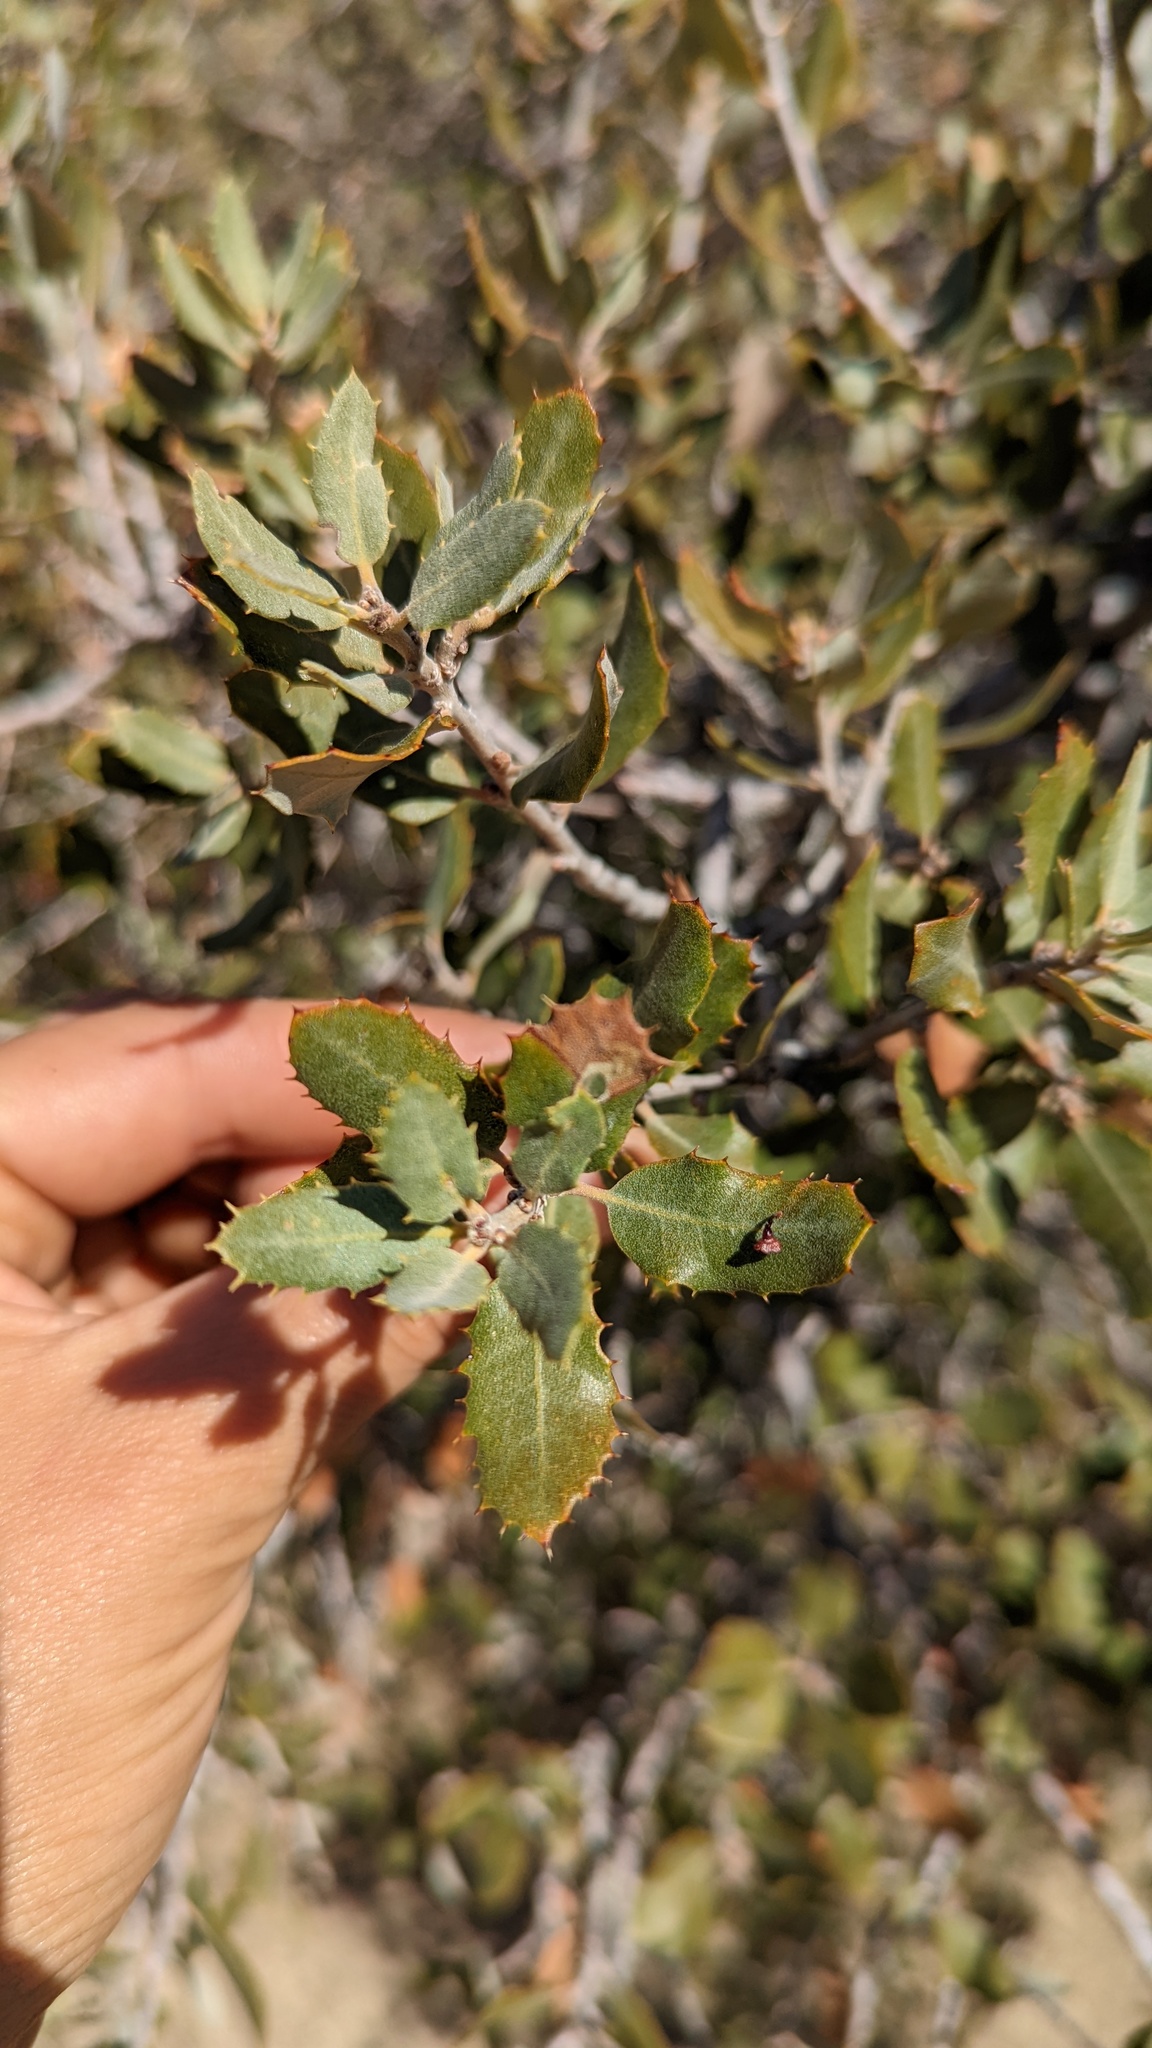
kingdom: Animalia
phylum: Arthropoda
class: Insecta
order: Hymenoptera
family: Cynipidae
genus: Andricus
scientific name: Andricus
